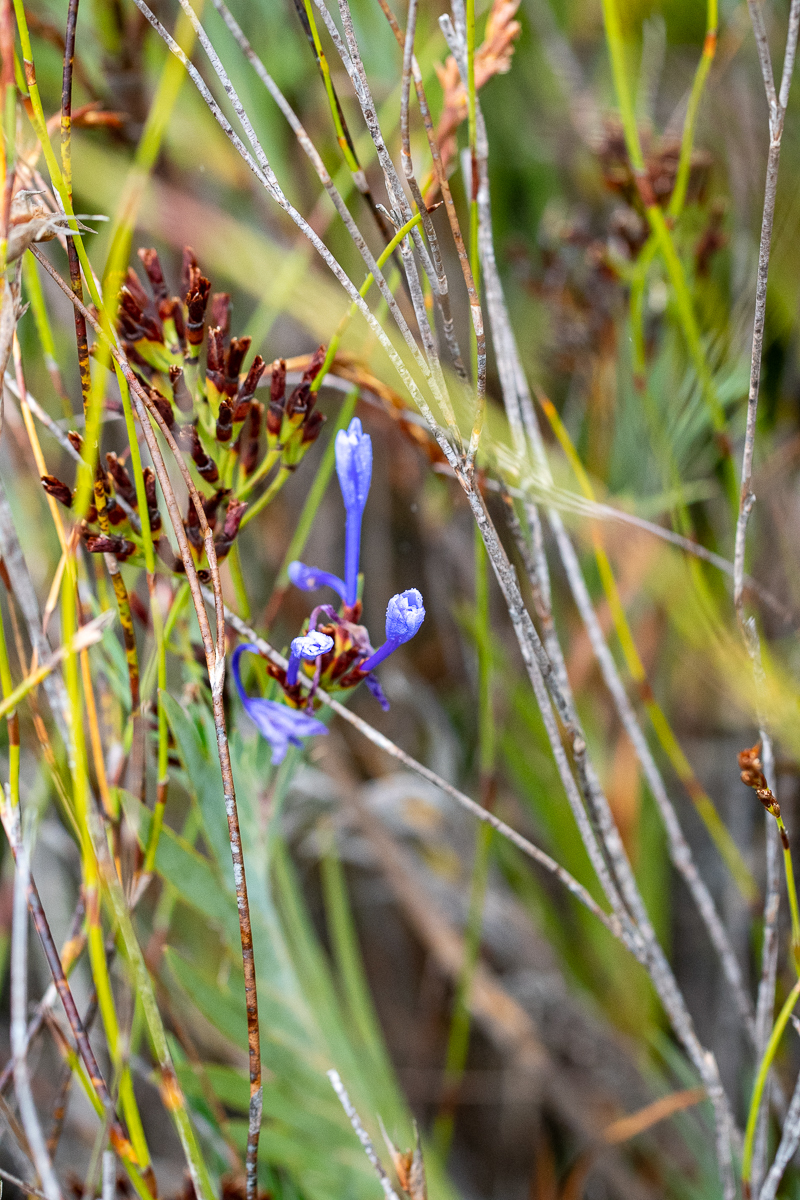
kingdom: Plantae
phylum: Tracheophyta
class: Liliopsida
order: Asparagales
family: Iridaceae
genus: Nivenia
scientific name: Nivenia stokoei
